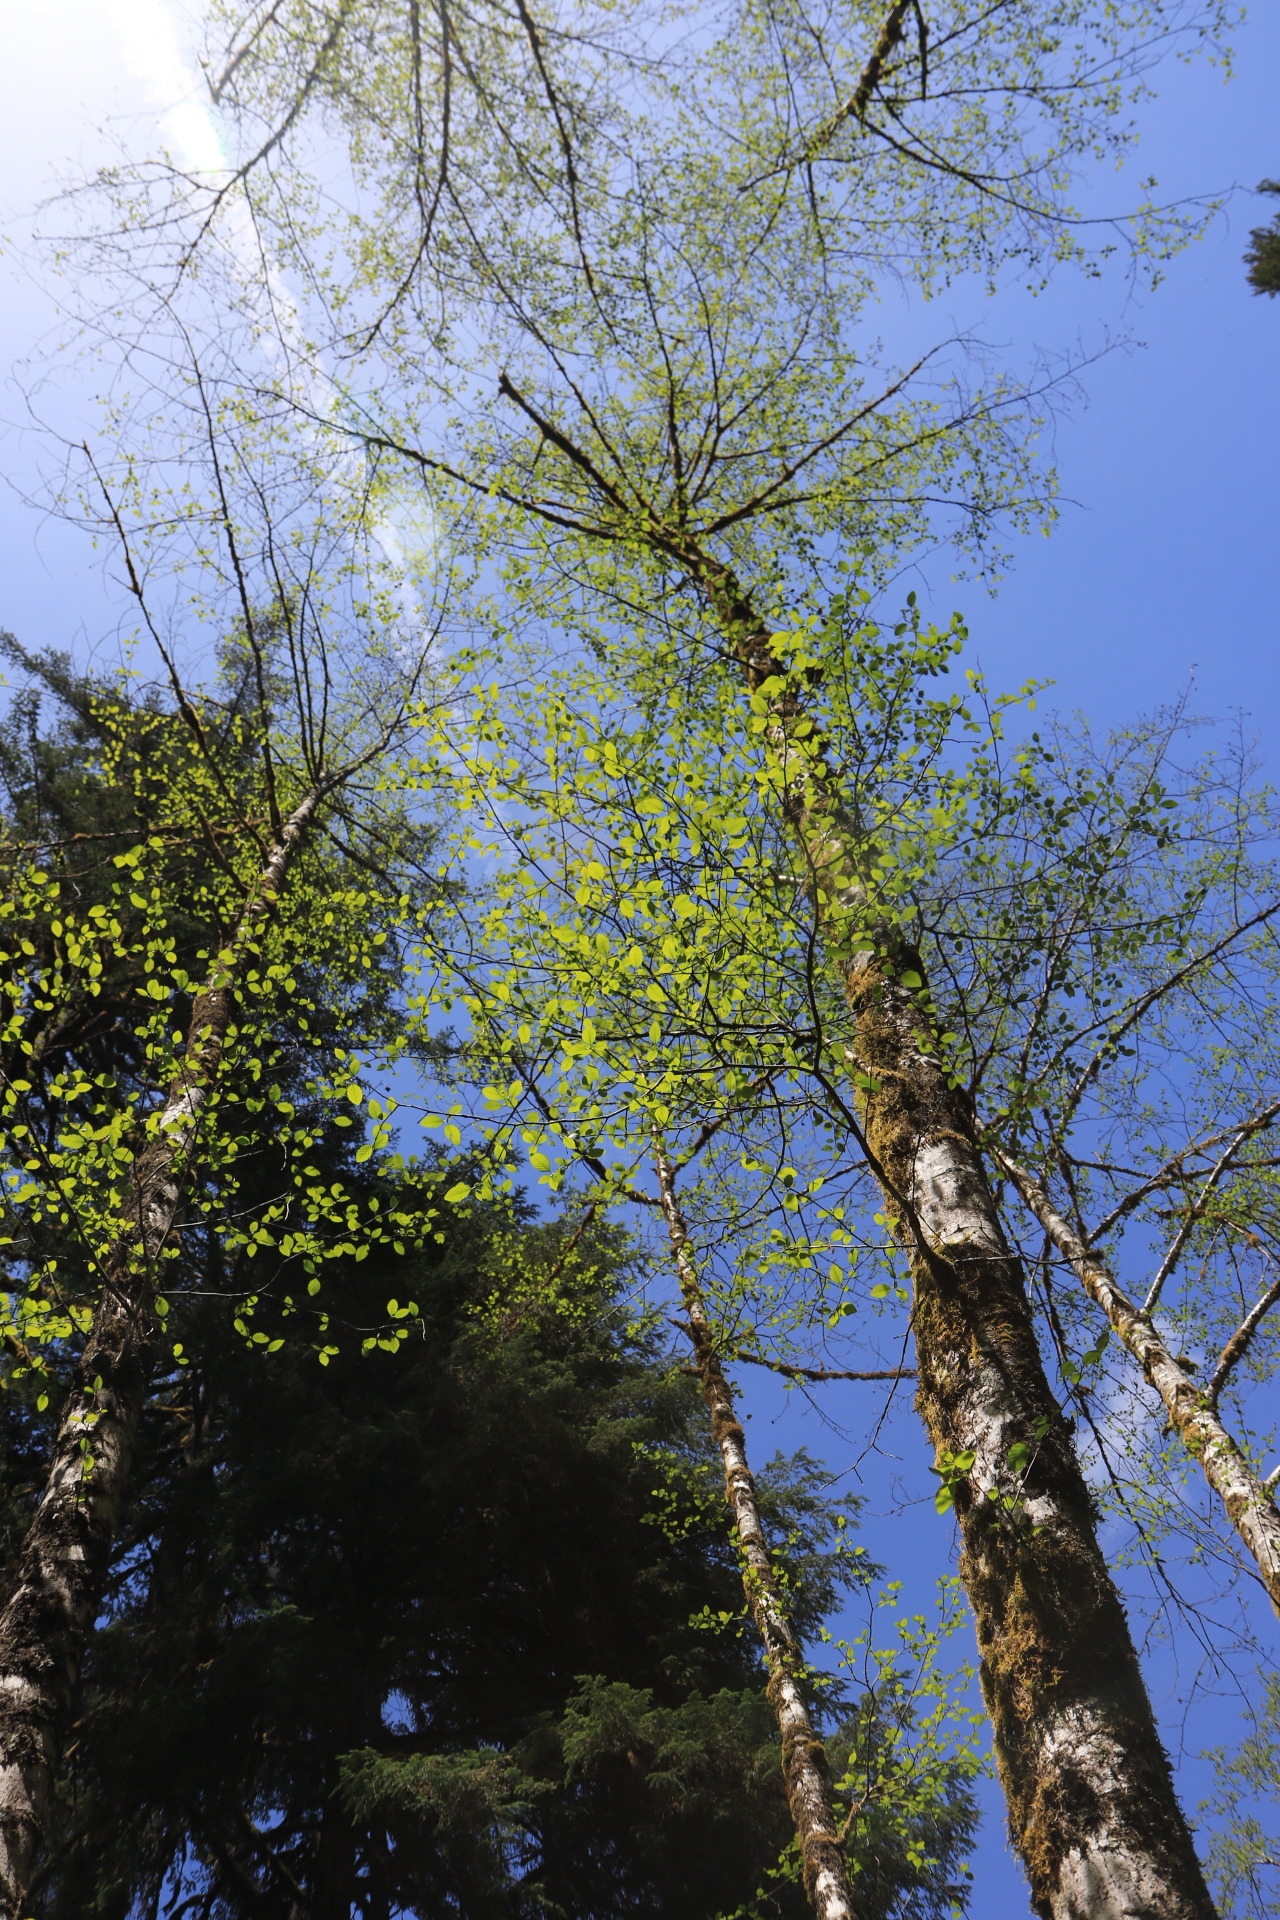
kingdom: Plantae
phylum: Tracheophyta
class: Magnoliopsida
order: Fagales
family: Betulaceae
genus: Alnus
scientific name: Alnus rubra
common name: Red alder
